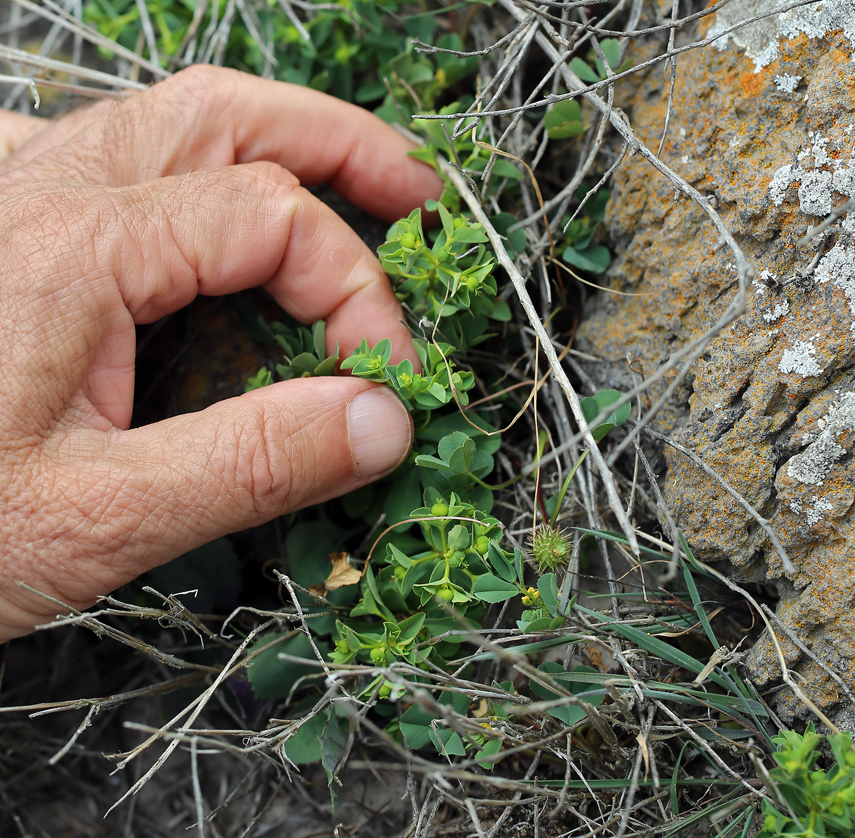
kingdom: Plantae
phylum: Tracheophyta
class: Magnoliopsida
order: Malpighiales
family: Euphorbiaceae
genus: Euphorbia
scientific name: Euphorbia spathulata
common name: Blunt spurge
